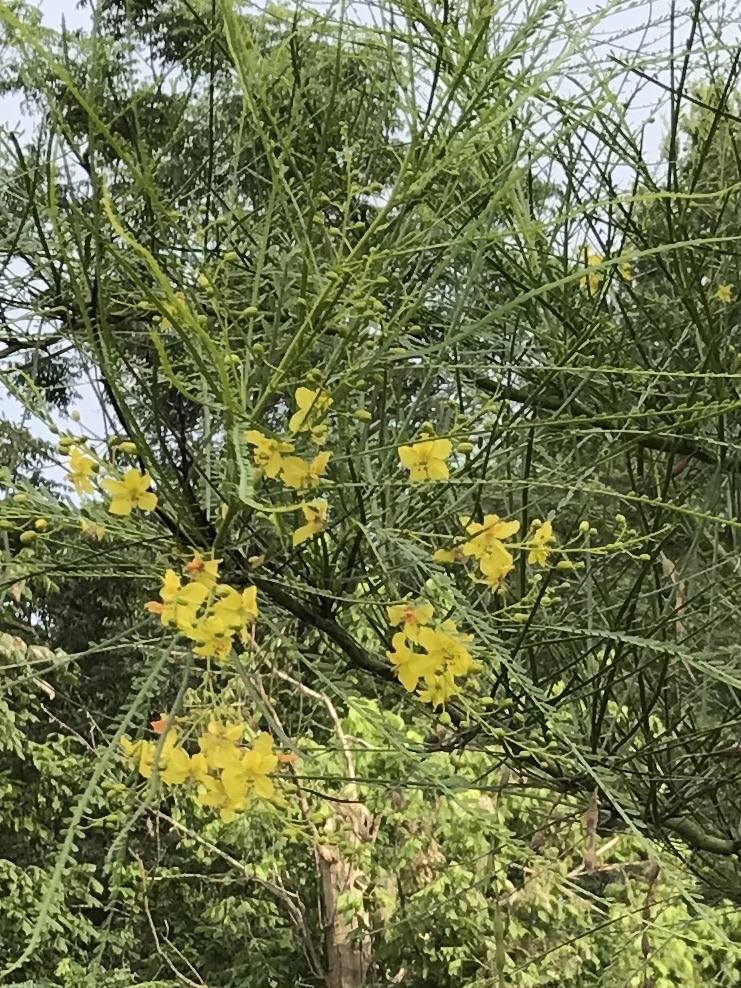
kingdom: Plantae
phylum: Tracheophyta
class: Magnoliopsida
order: Fabales
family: Fabaceae
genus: Parkinsonia
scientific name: Parkinsonia aculeata
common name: Jerusalem thorn
